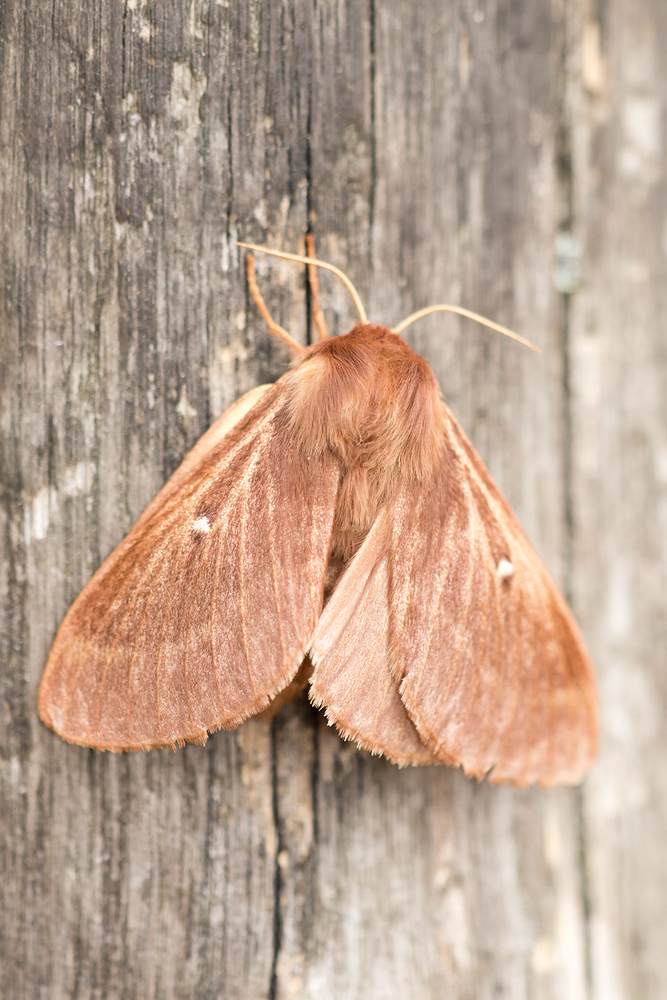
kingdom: Animalia
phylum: Arthropoda
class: Insecta
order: Lepidoptera
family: Lasiocampidae
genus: Lasiocampa
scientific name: Lasiocampa trifolii
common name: Grass eggar
